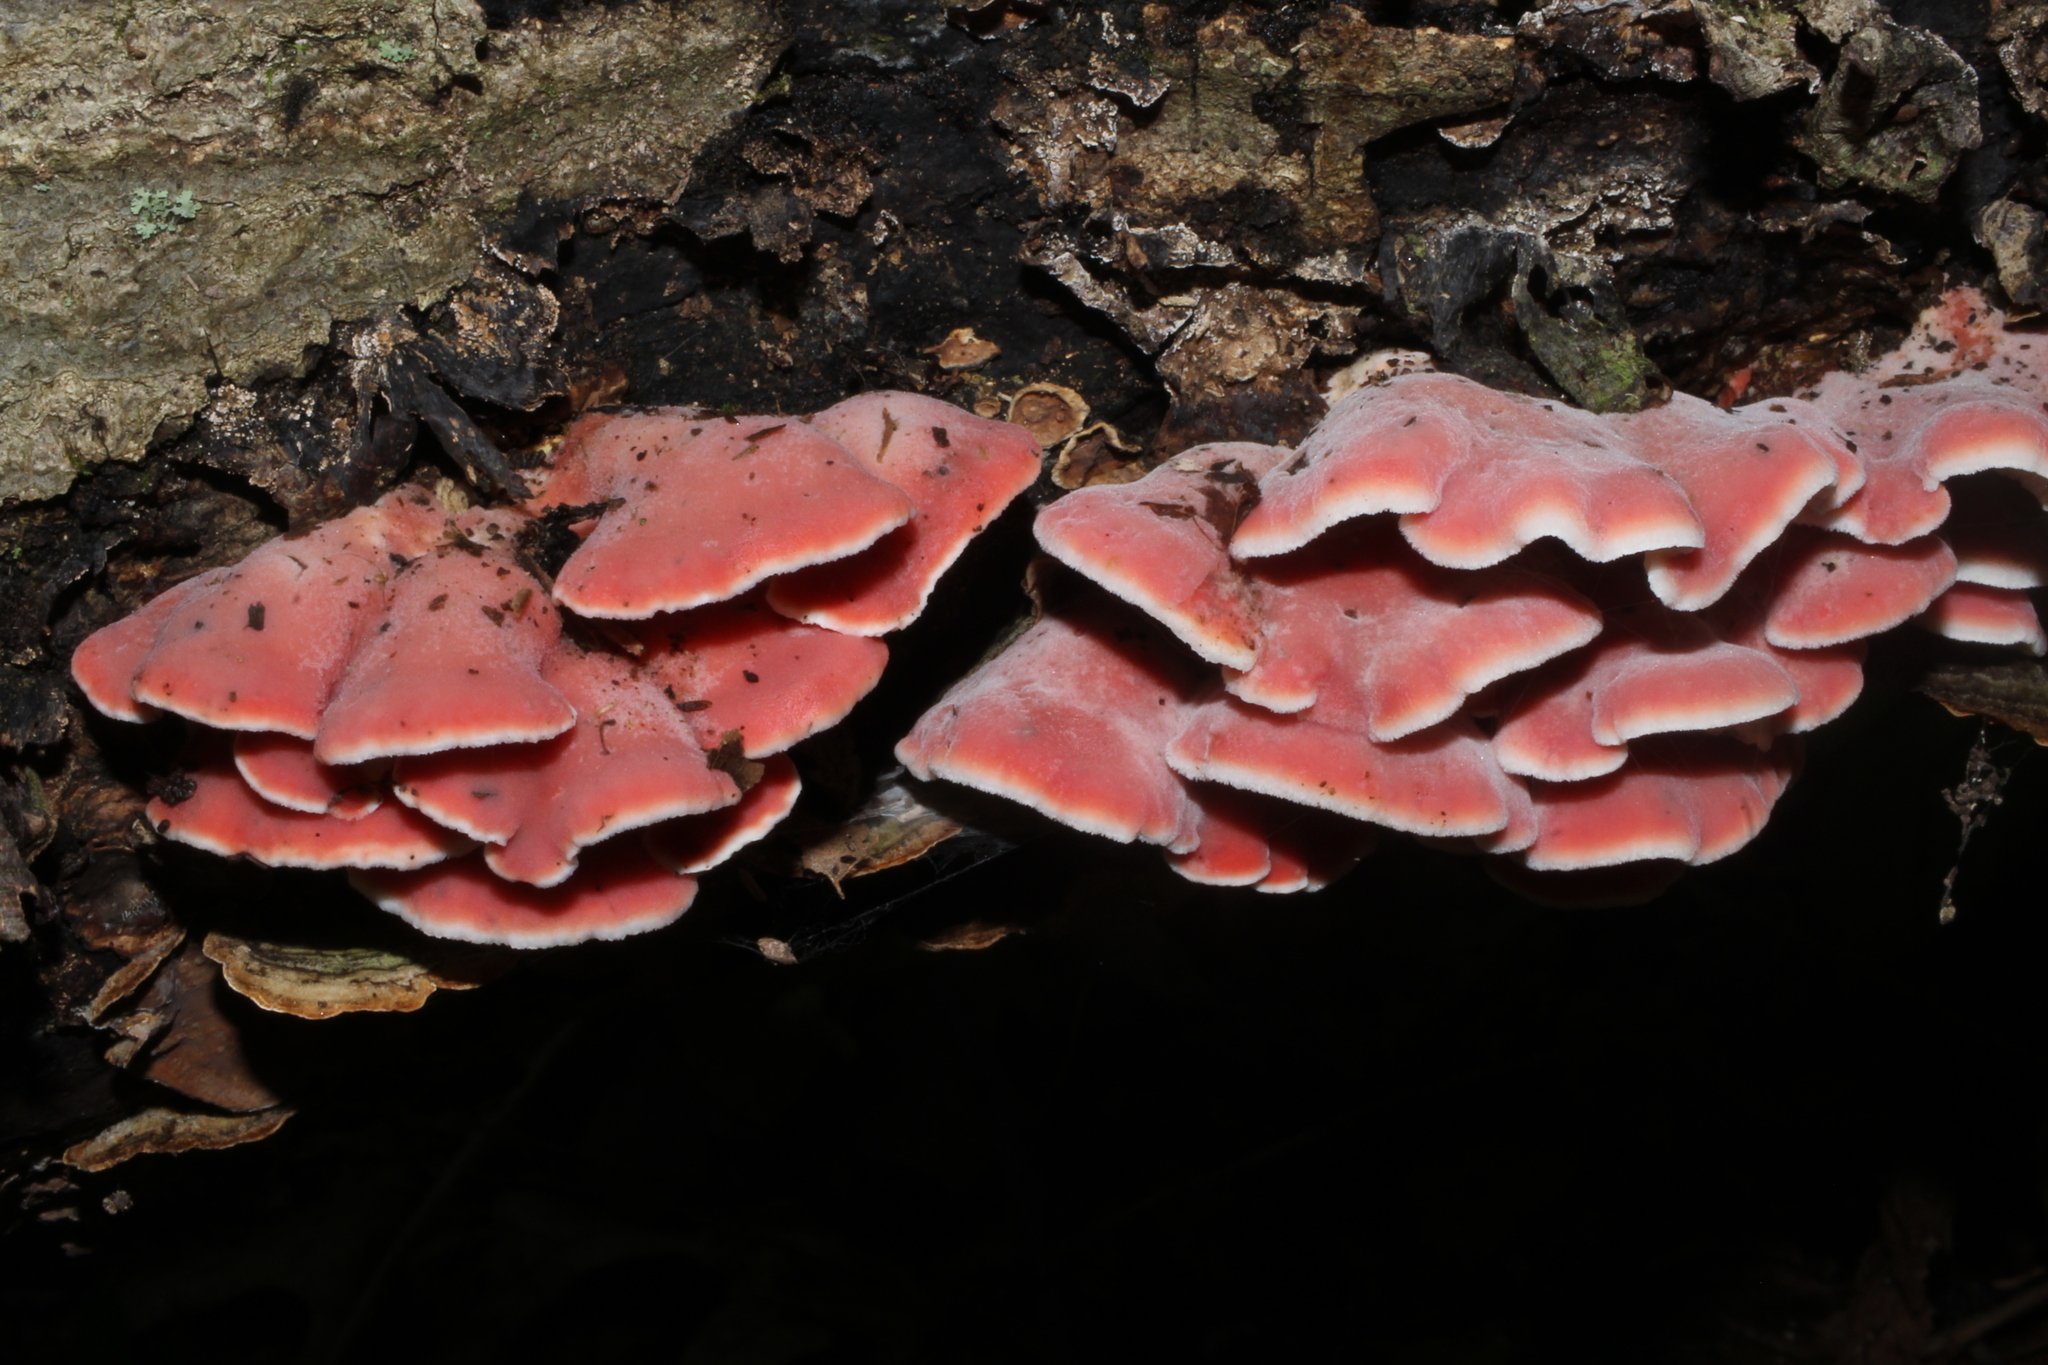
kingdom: Fungi
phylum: Basidiomycota
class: Agaricomycetes
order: Polyporales
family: Irpicaceae
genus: Byssomerulius
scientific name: Byssomerulius incarnatus
